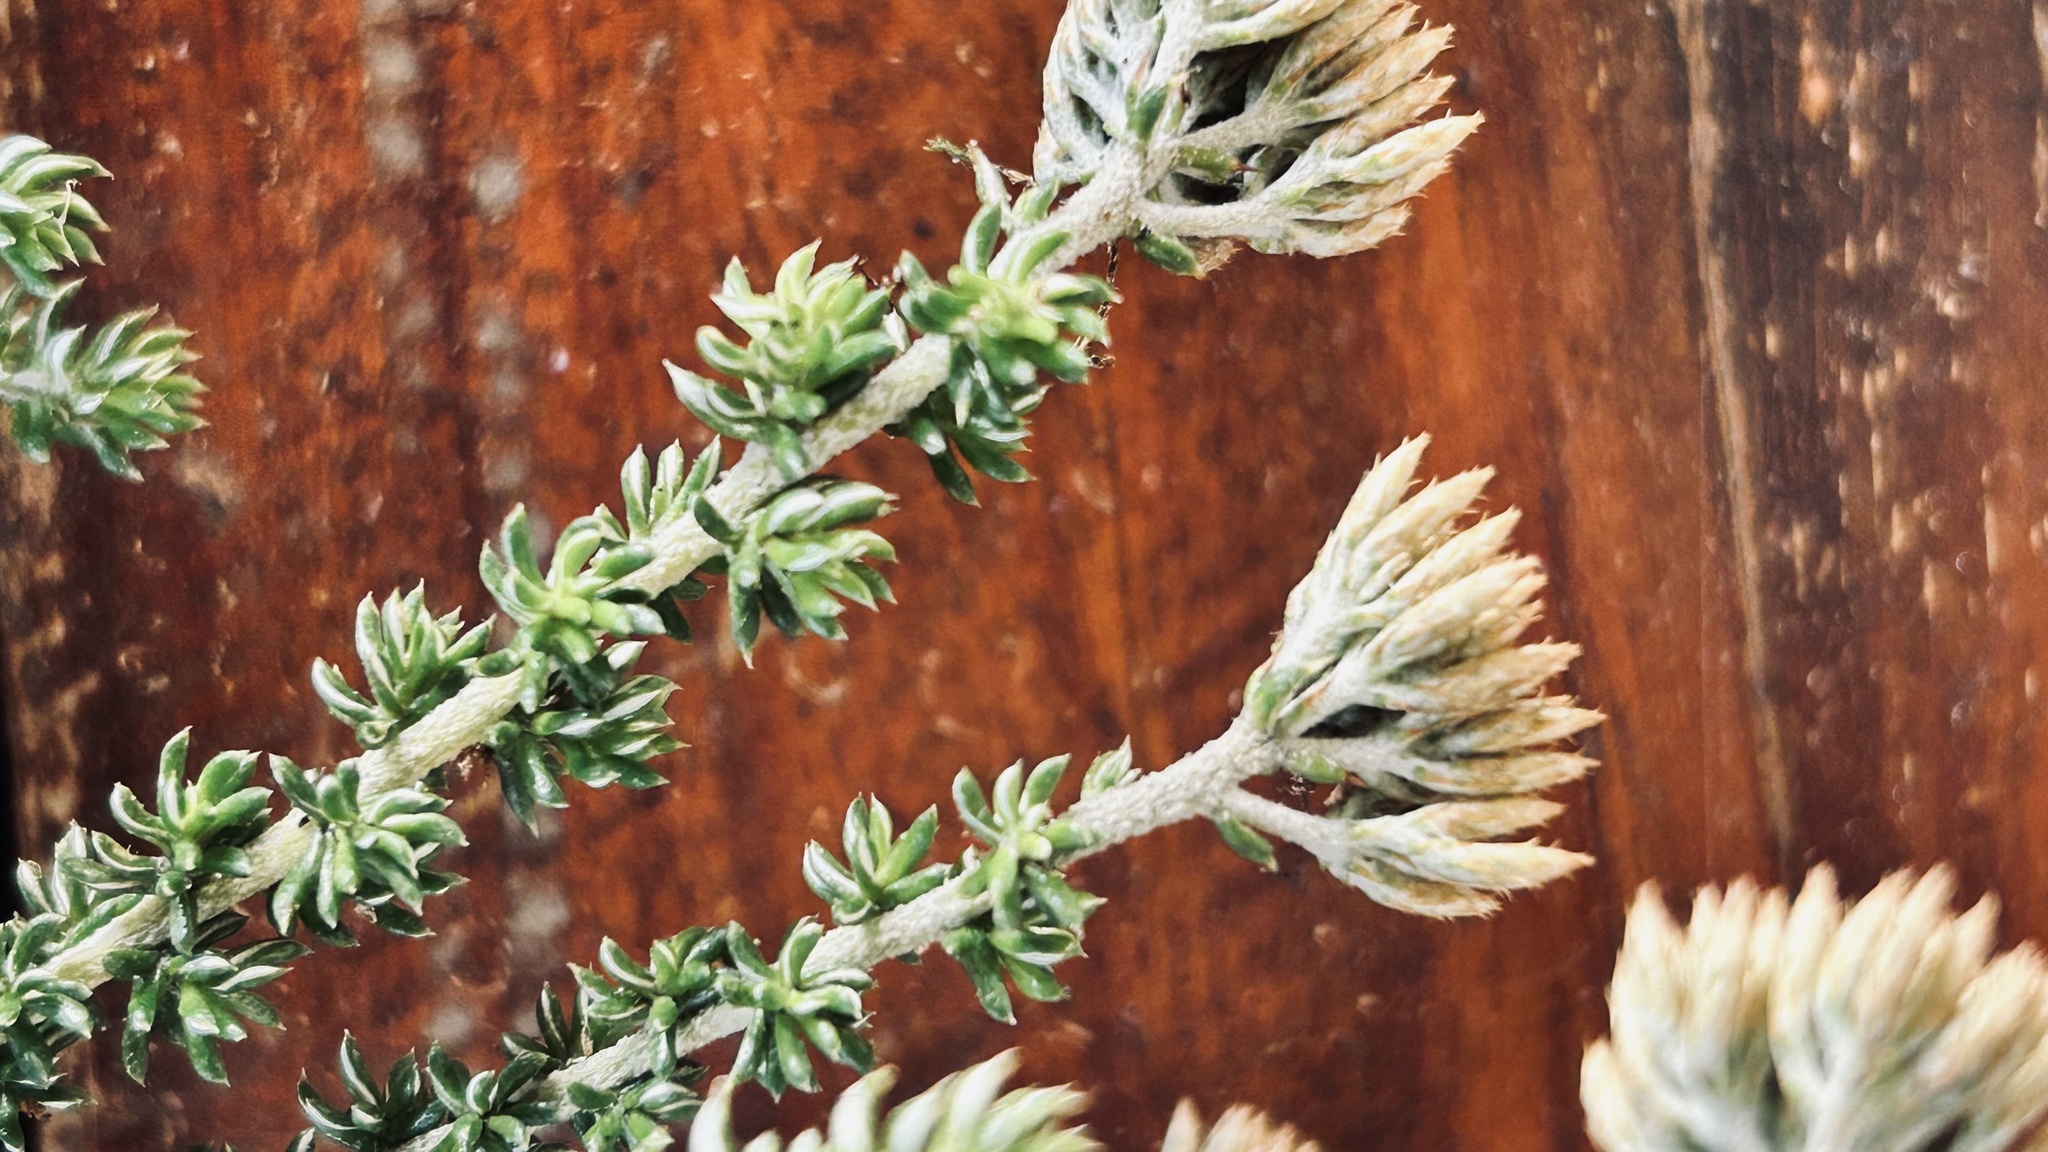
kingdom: Plantae
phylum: Tracheophyta
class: Magnoliopsida
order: Asterales
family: Asteraceae
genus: Metalasia
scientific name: Metalasia densa
